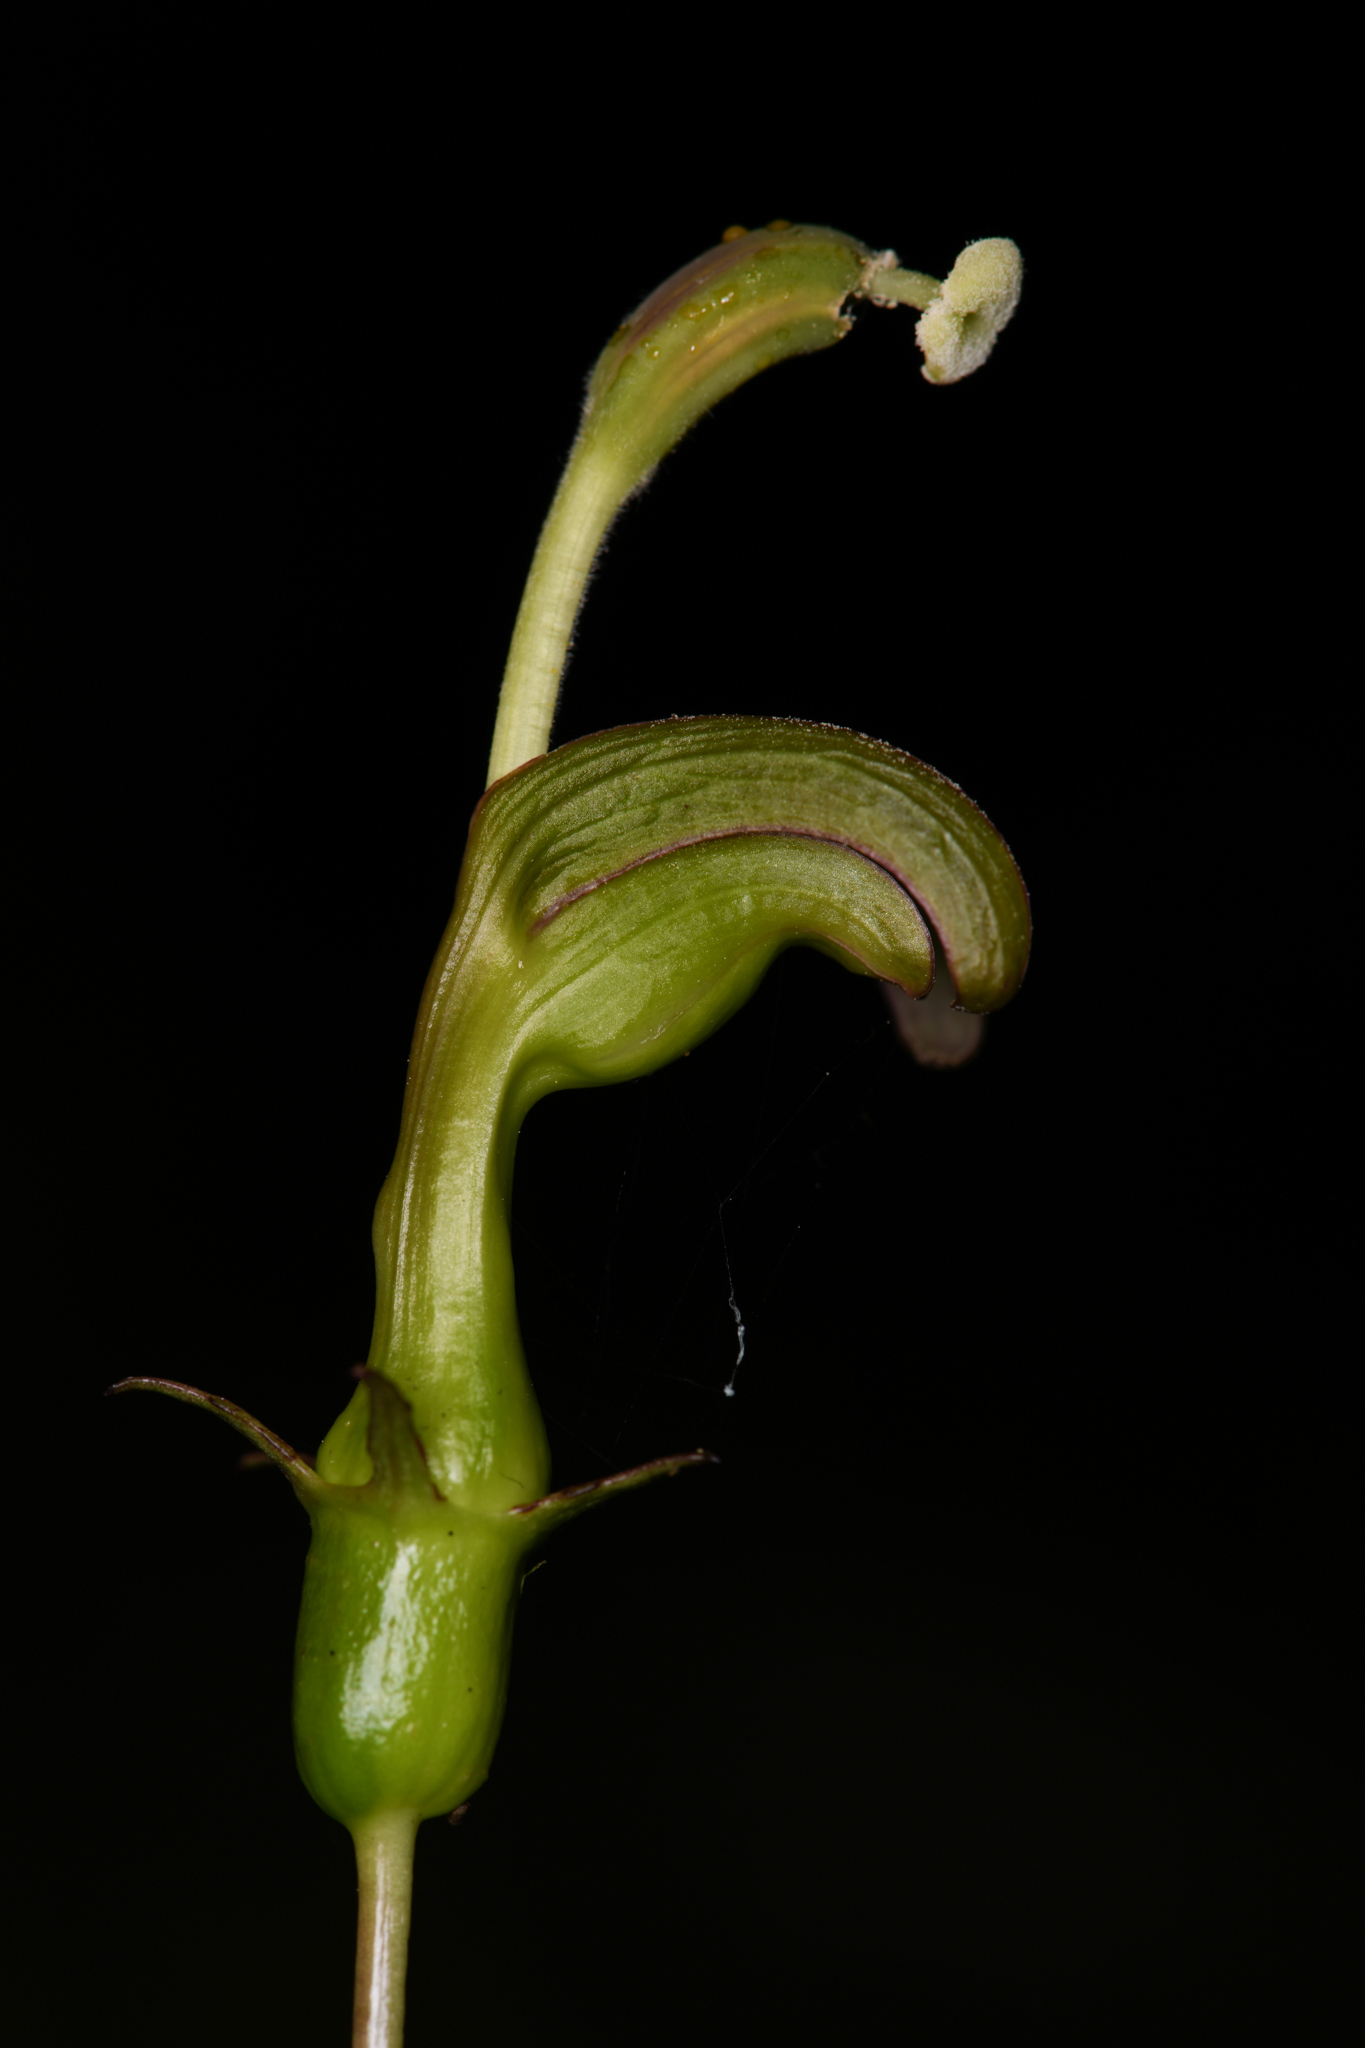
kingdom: Plantae
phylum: Tracheophyta
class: Magnoliopsida
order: Asterales
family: Campanulaceae
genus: Burmeistera
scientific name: Burmeistera vulgaris
